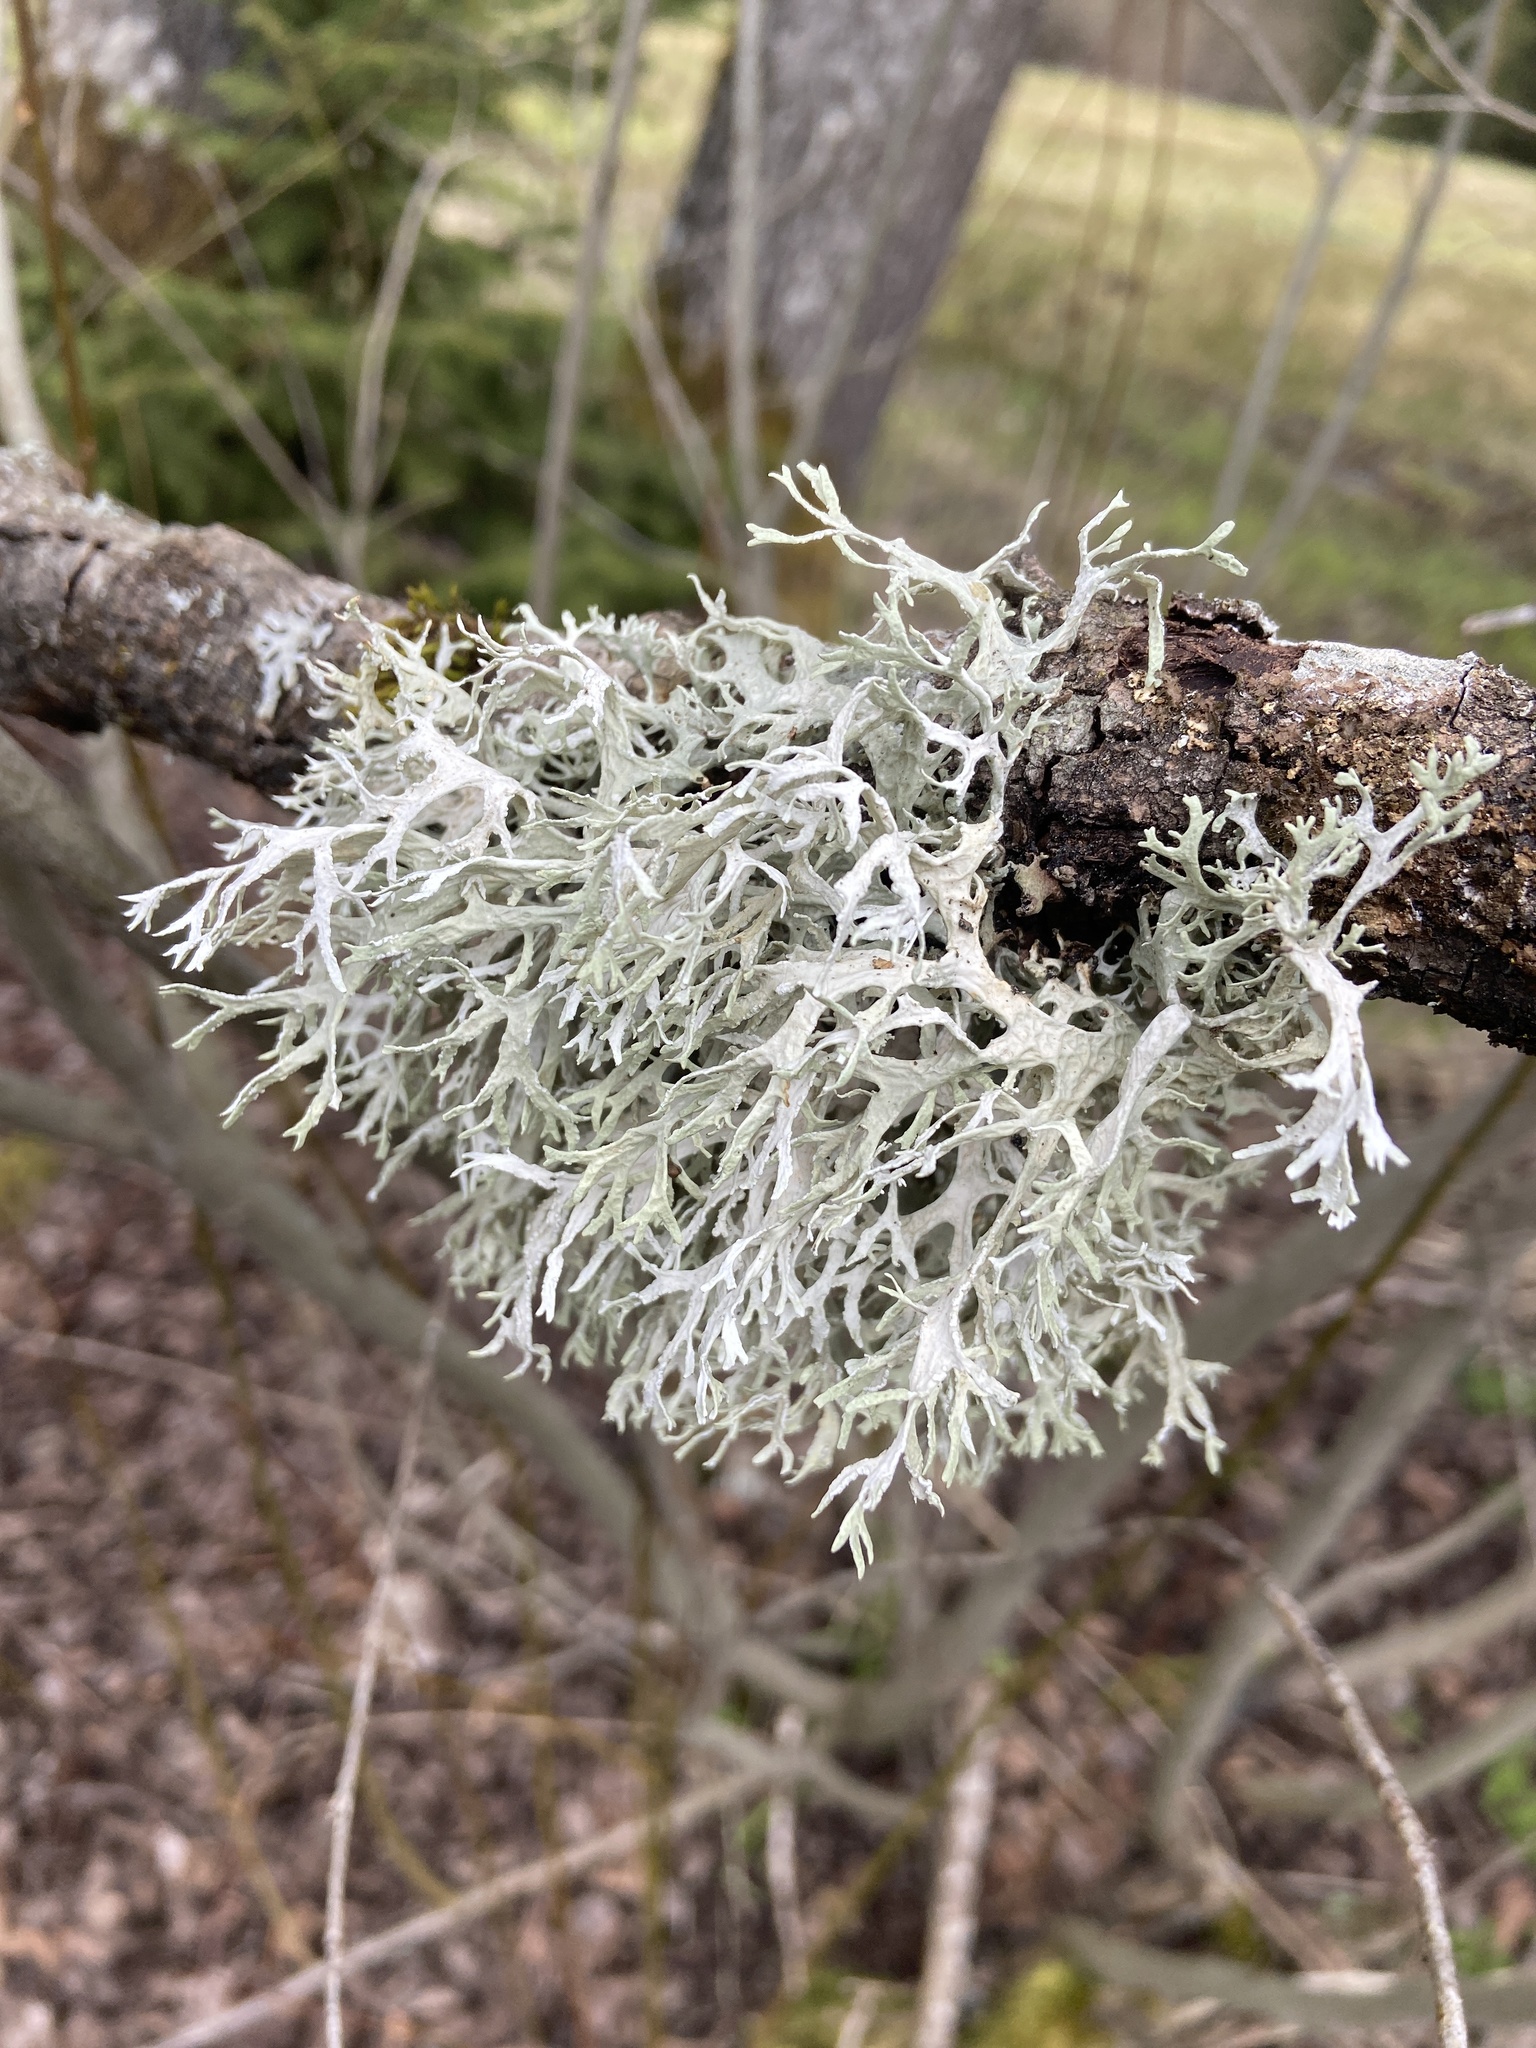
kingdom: Fungi
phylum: Ascomycota
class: Lecanoromycetes
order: Lecanorales
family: Parmeliaceae
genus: Evernia
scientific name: Evernia prunastri
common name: Oak moss
